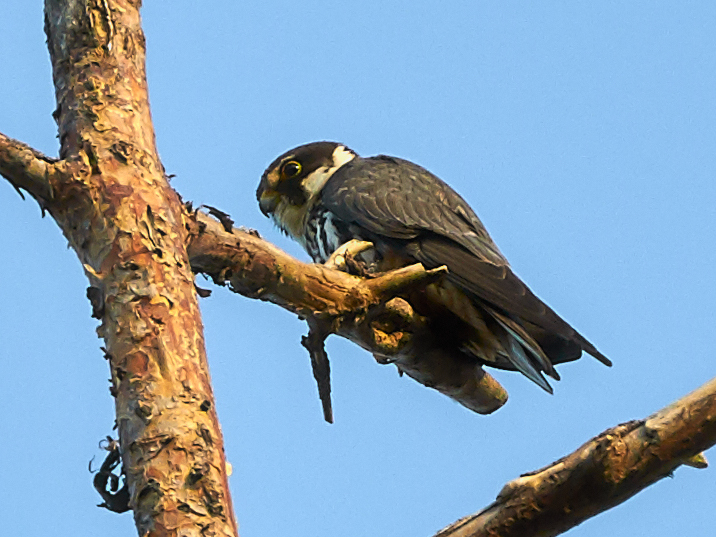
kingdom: Animalia
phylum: Chordata
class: Aves
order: Falconiformes
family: Falconidae
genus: Falco
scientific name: Falco subbuteo
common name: Eurasian hobby
